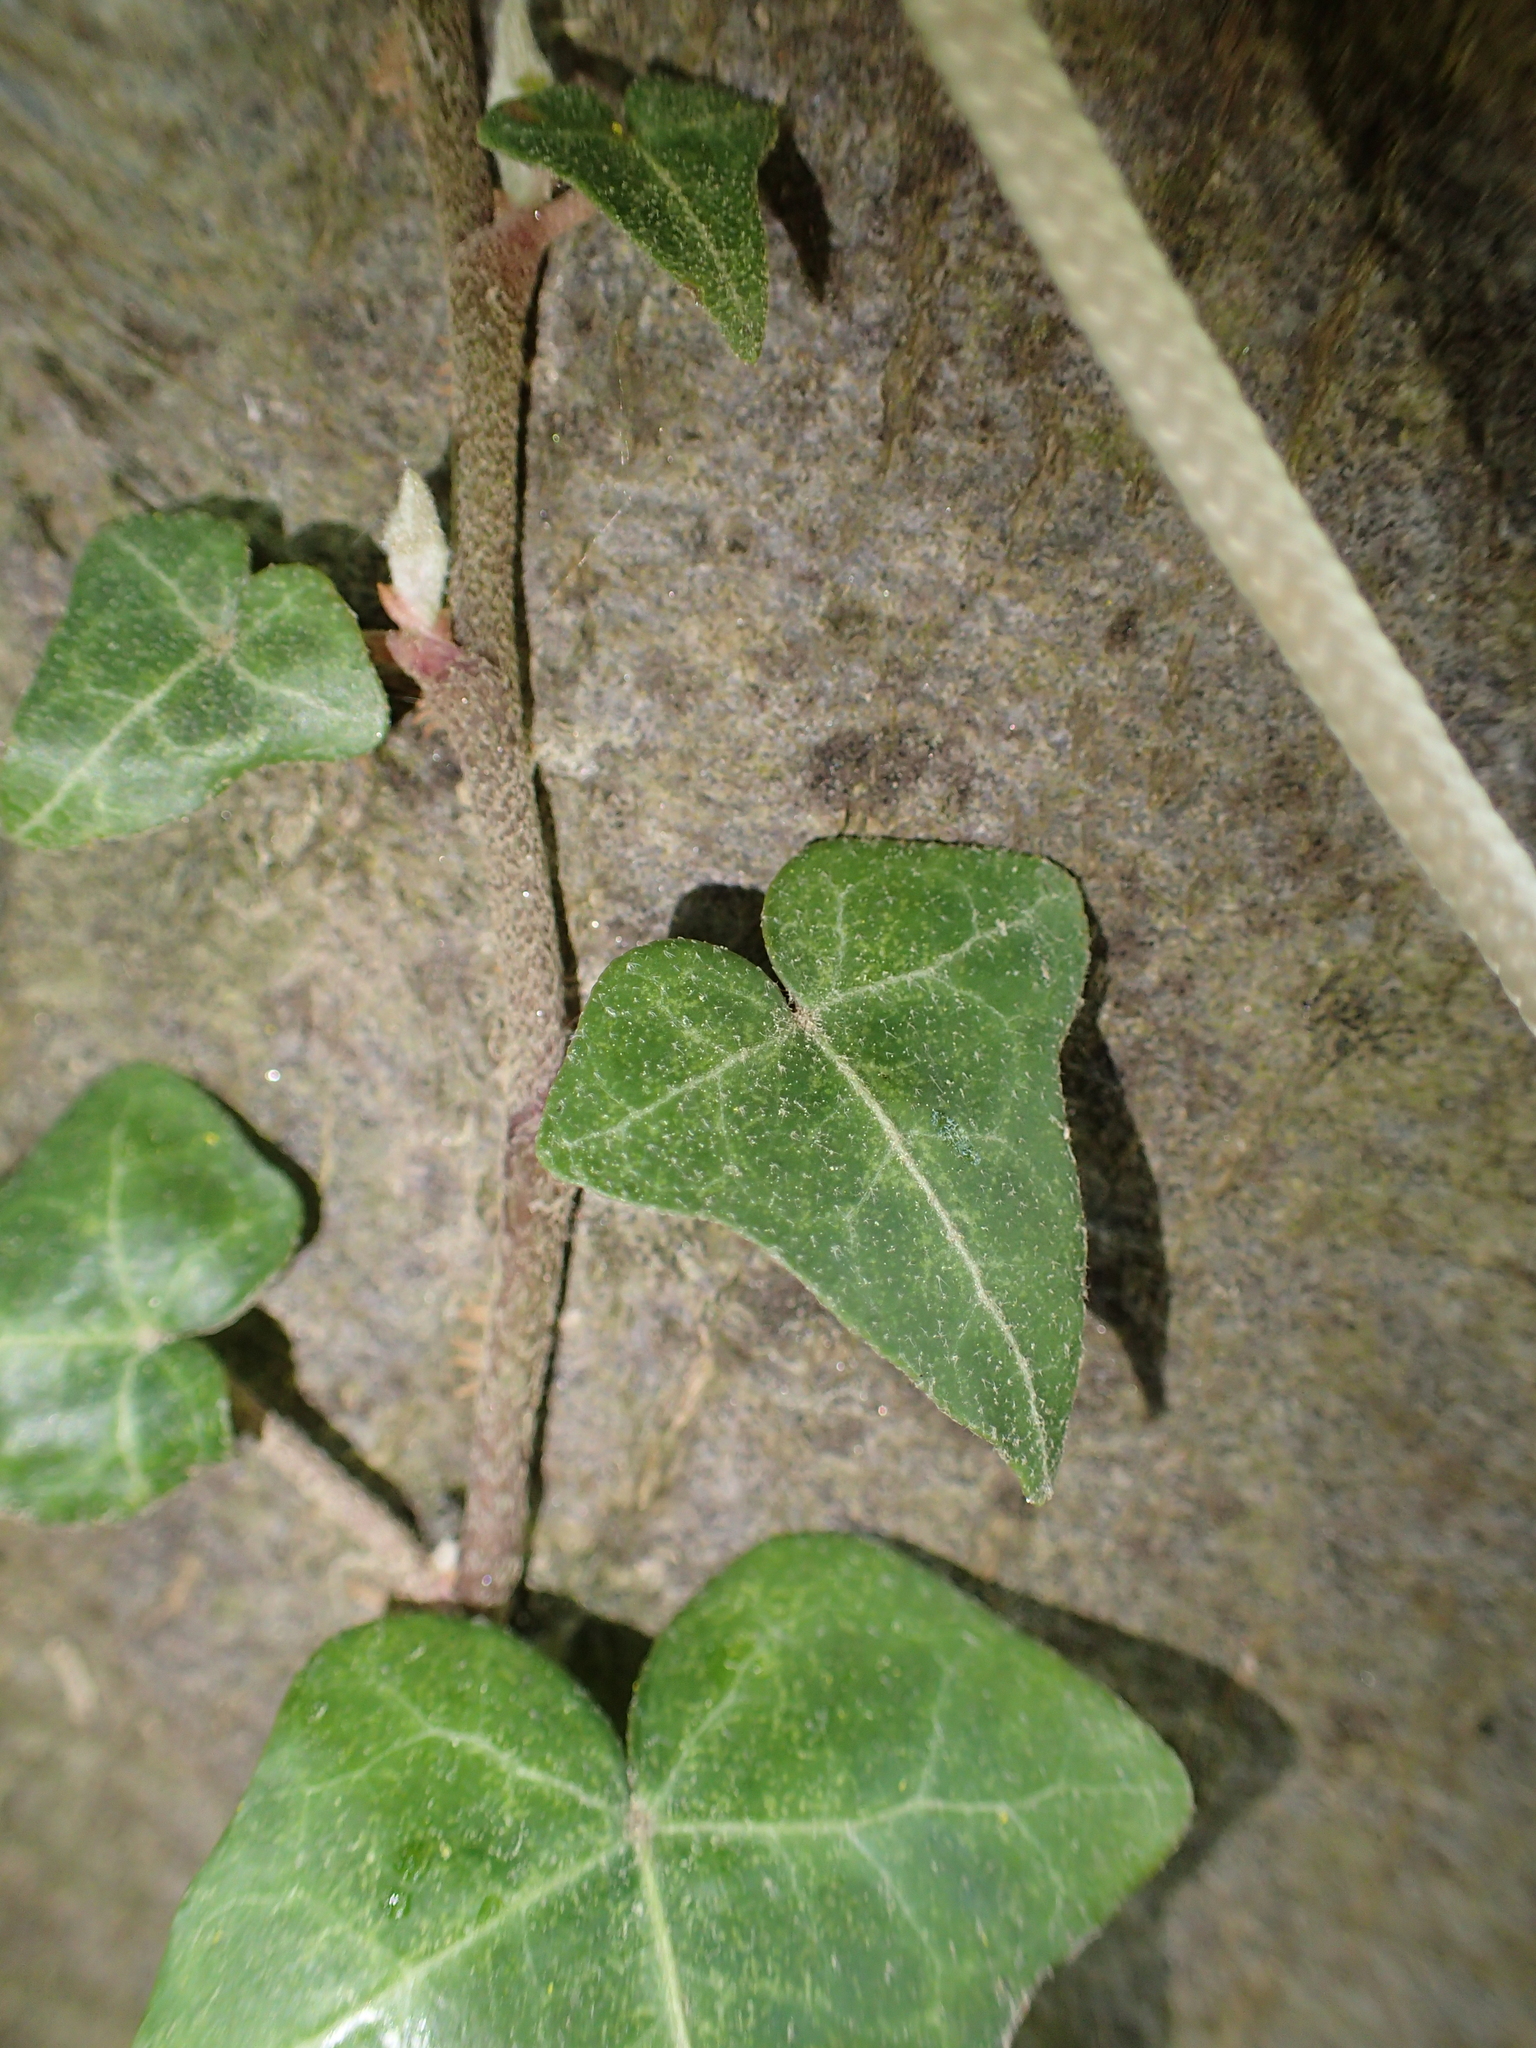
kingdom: Plantae
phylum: Tracheophyta
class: Magnoliopsida
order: Apiales
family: Araliaceae
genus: Hedera
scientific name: Hedera helix
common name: Ivy
